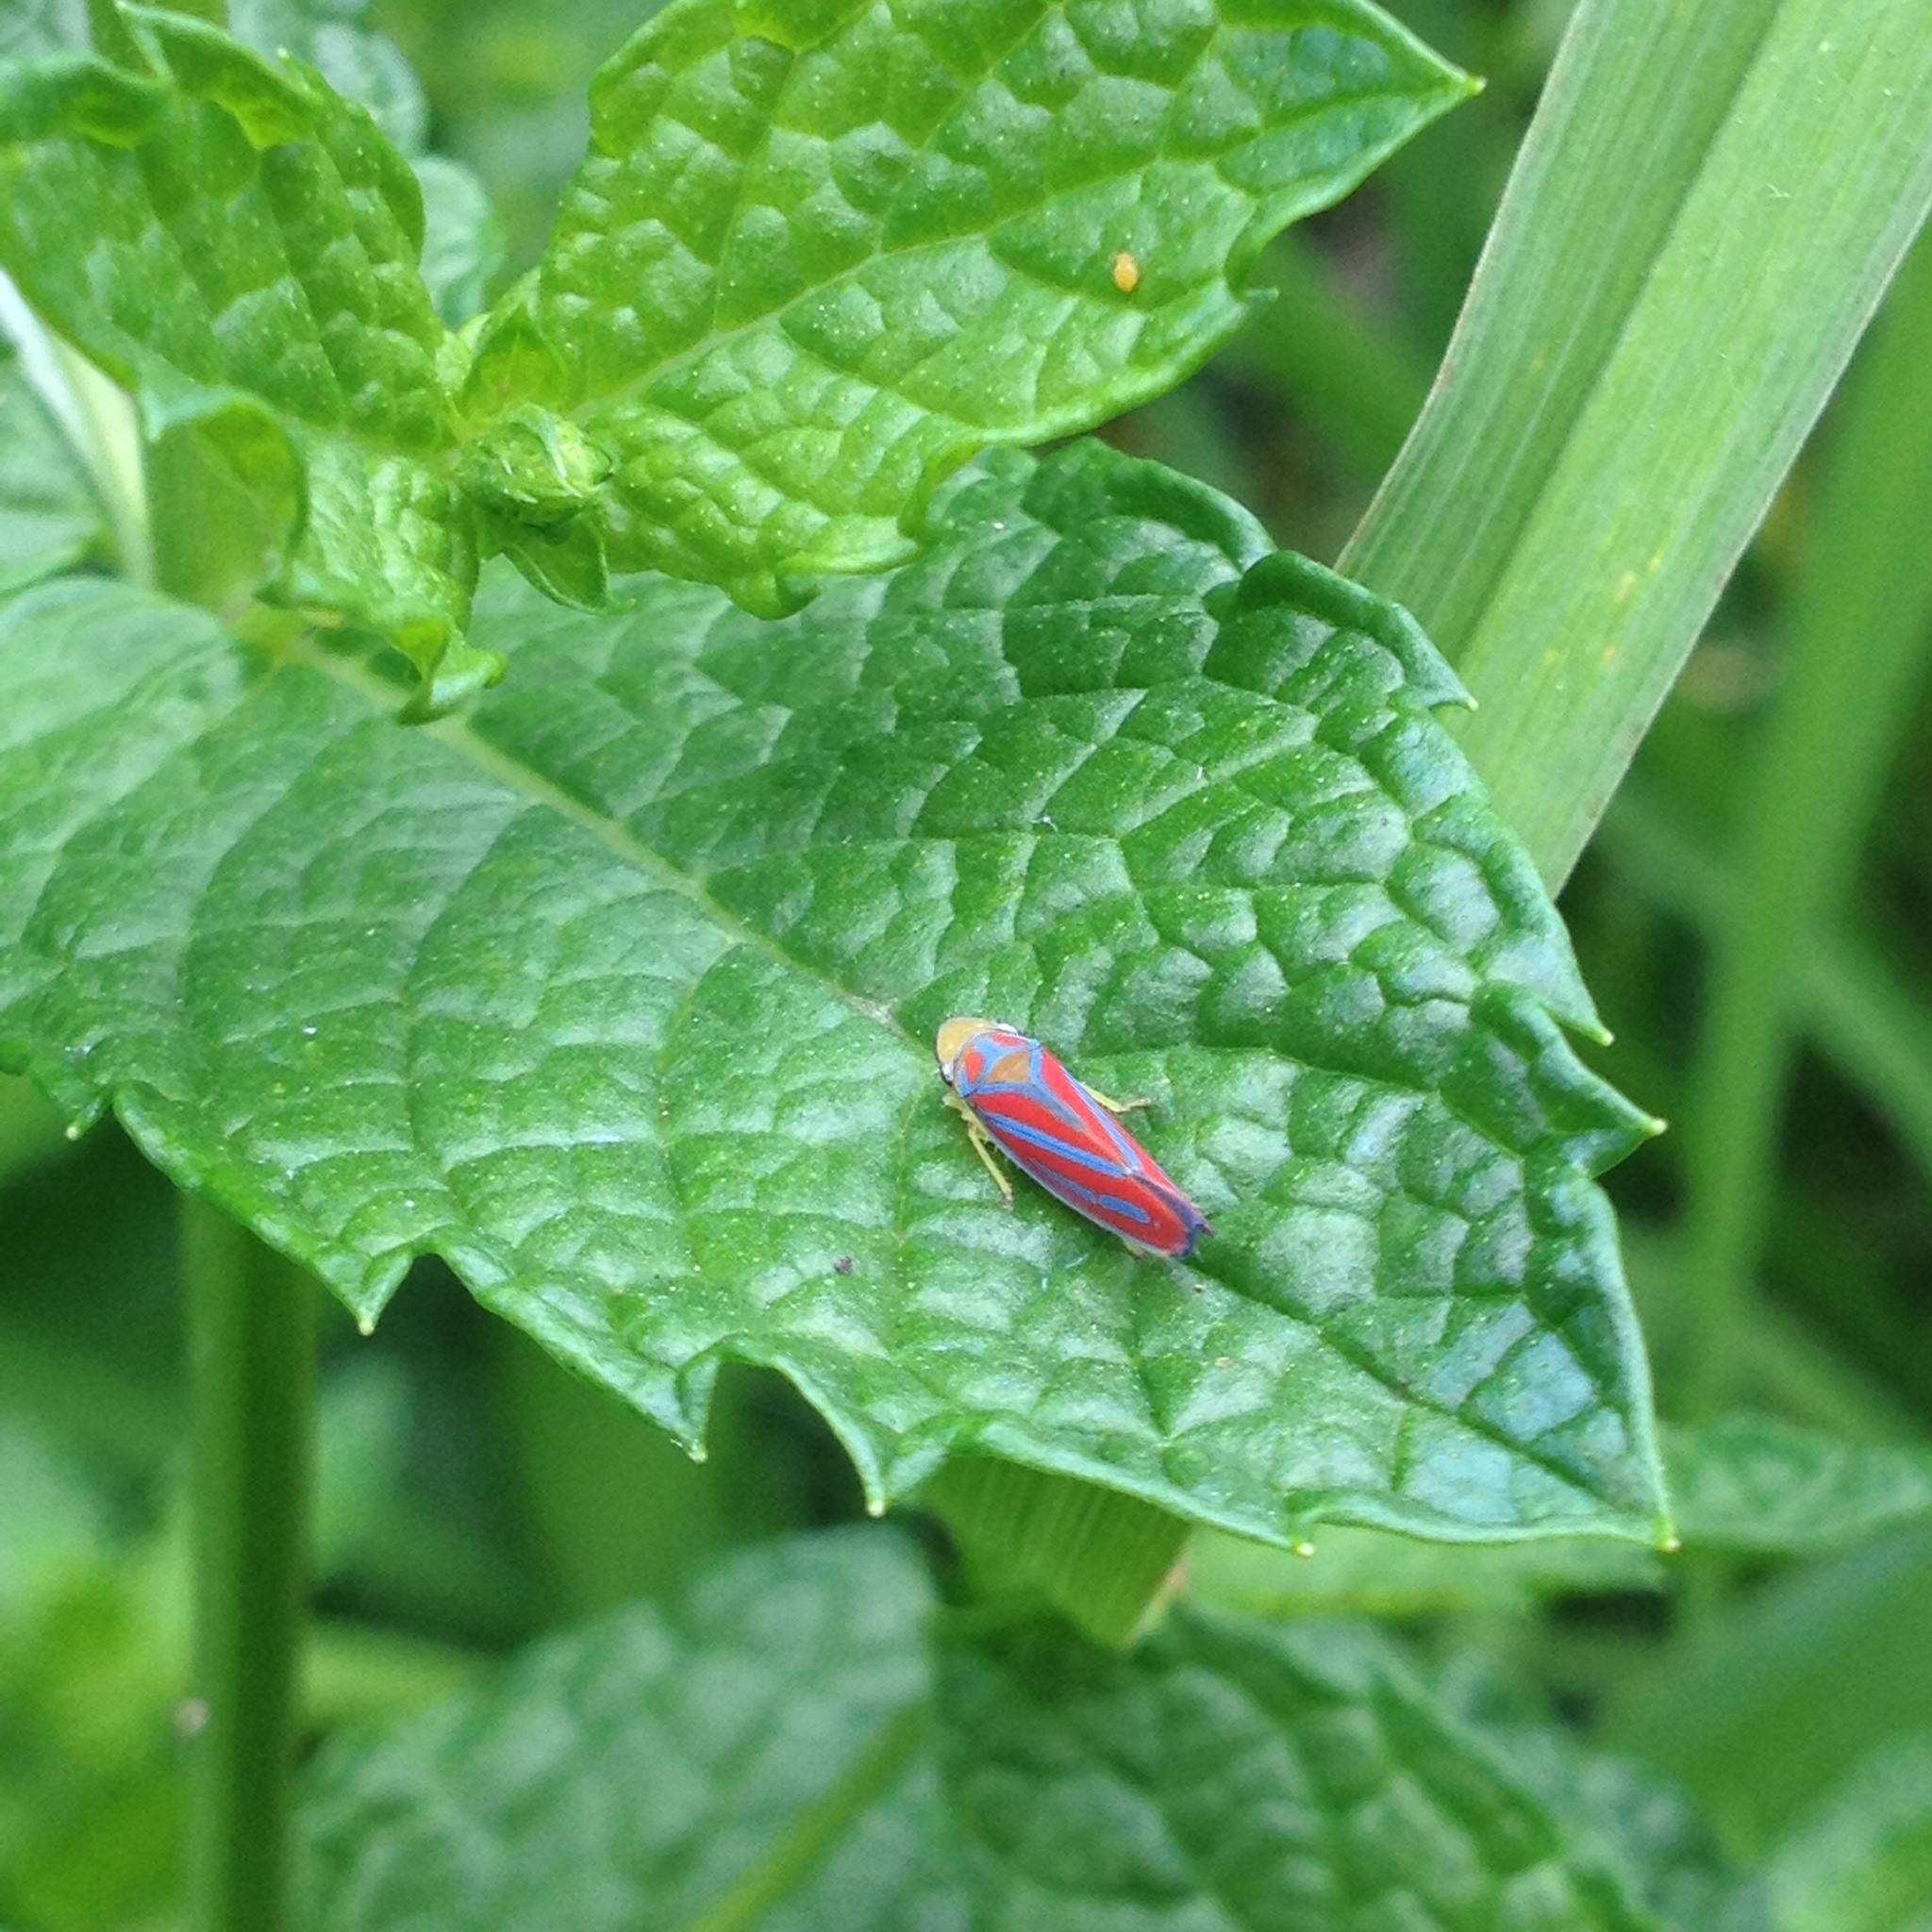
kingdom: Animalia
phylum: Arthropoda
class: Insecta
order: Hemiptera
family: Cicadellidae
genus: Graphocephala
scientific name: Graphocephala coccinea
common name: Candy-striped leafhopper
